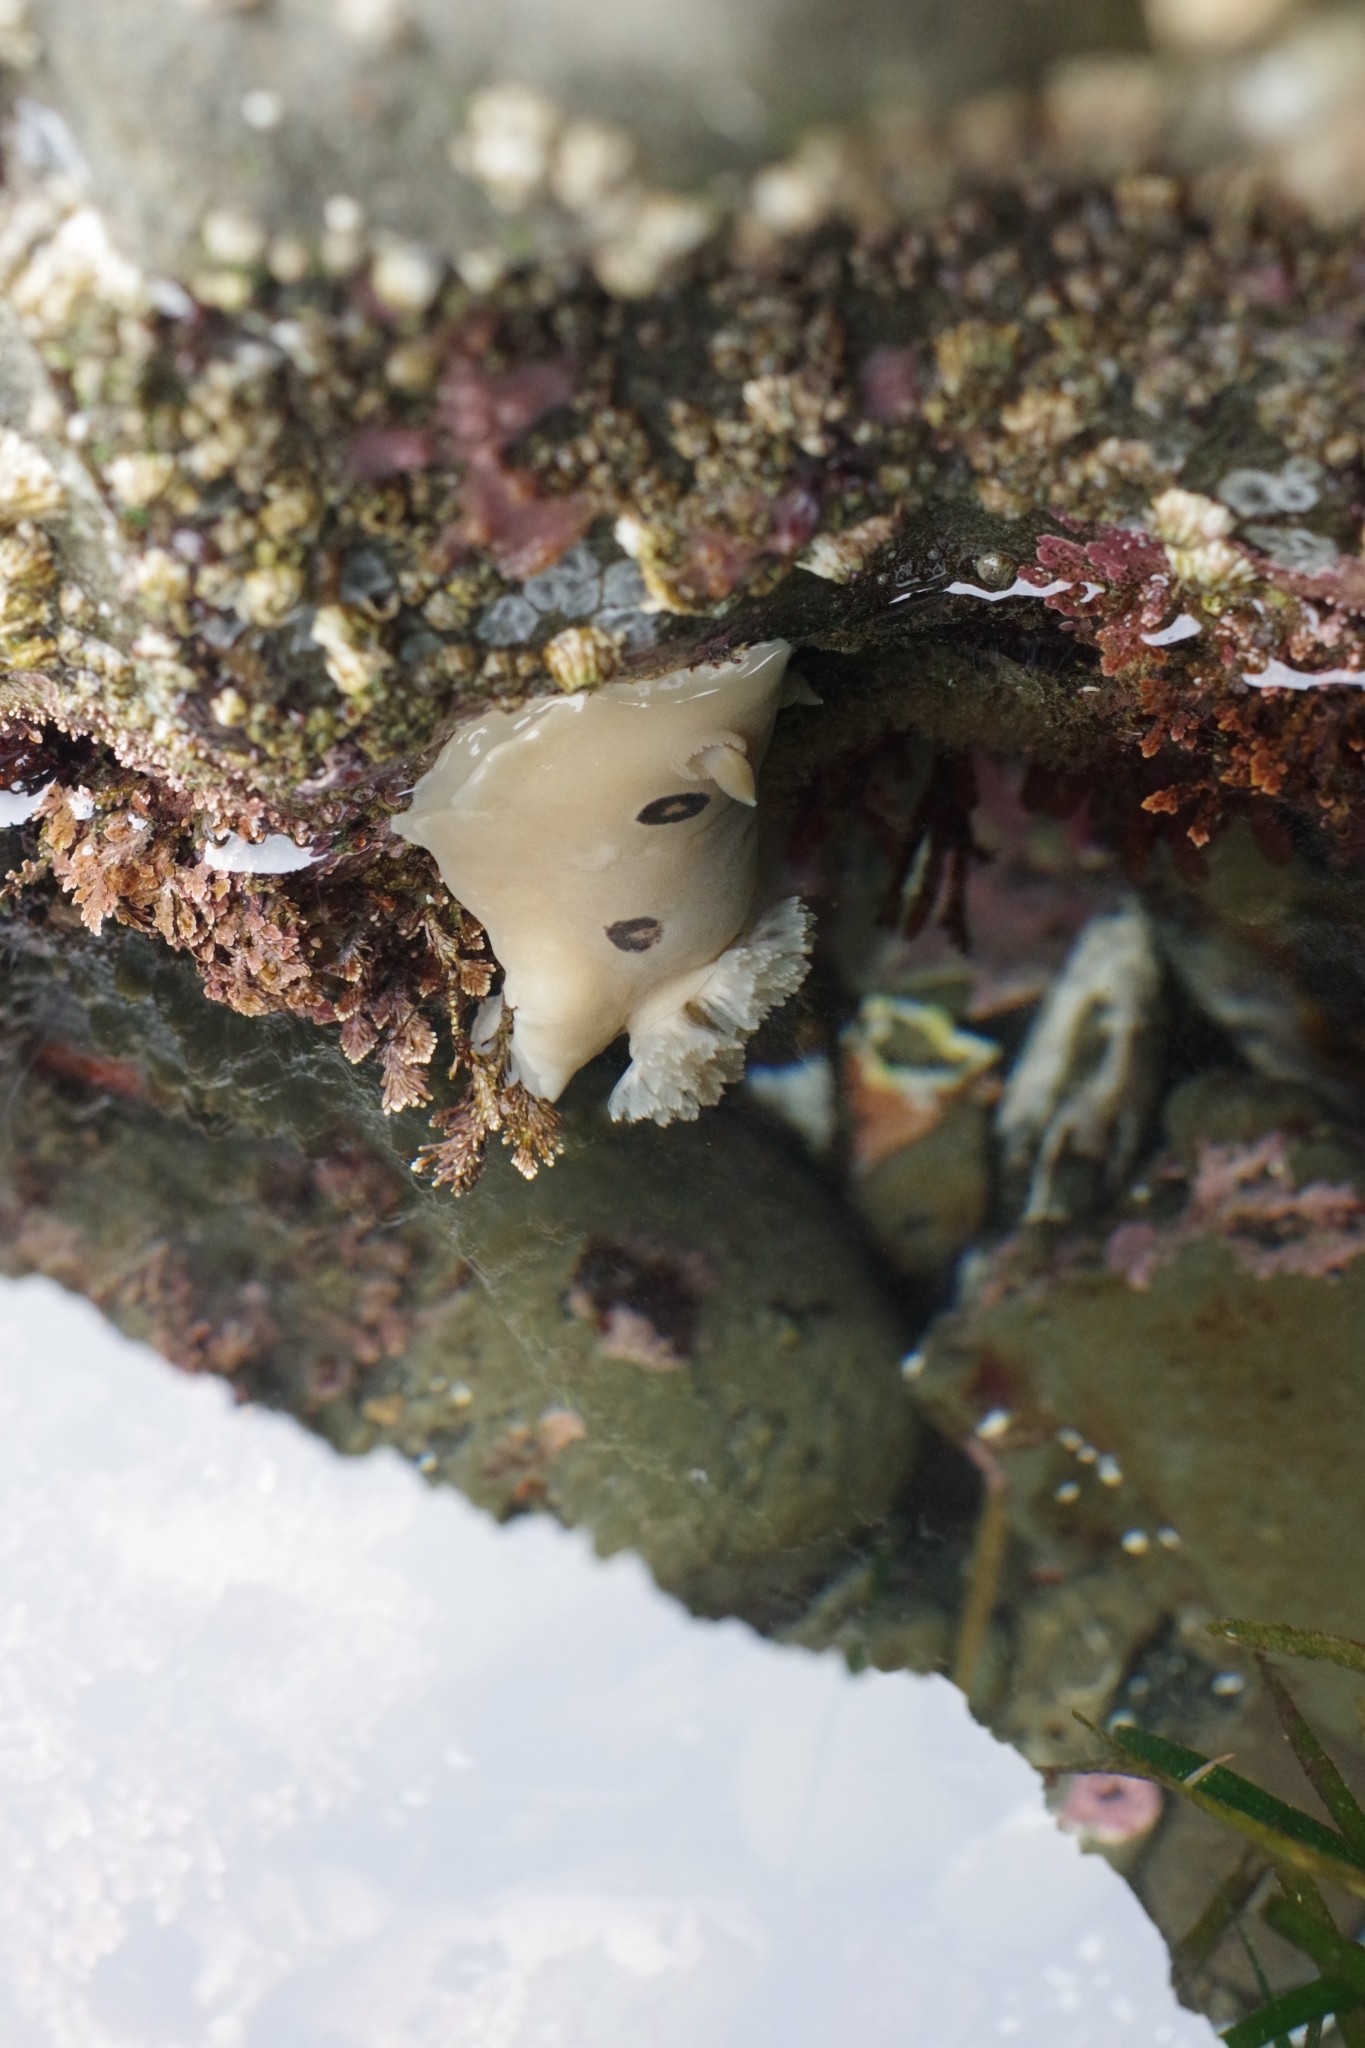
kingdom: Animalia
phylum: Mollusca
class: Gastropoda
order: Nudibranchia
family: Discodorididae
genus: Diaulula
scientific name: Diaulula sandiegensis
